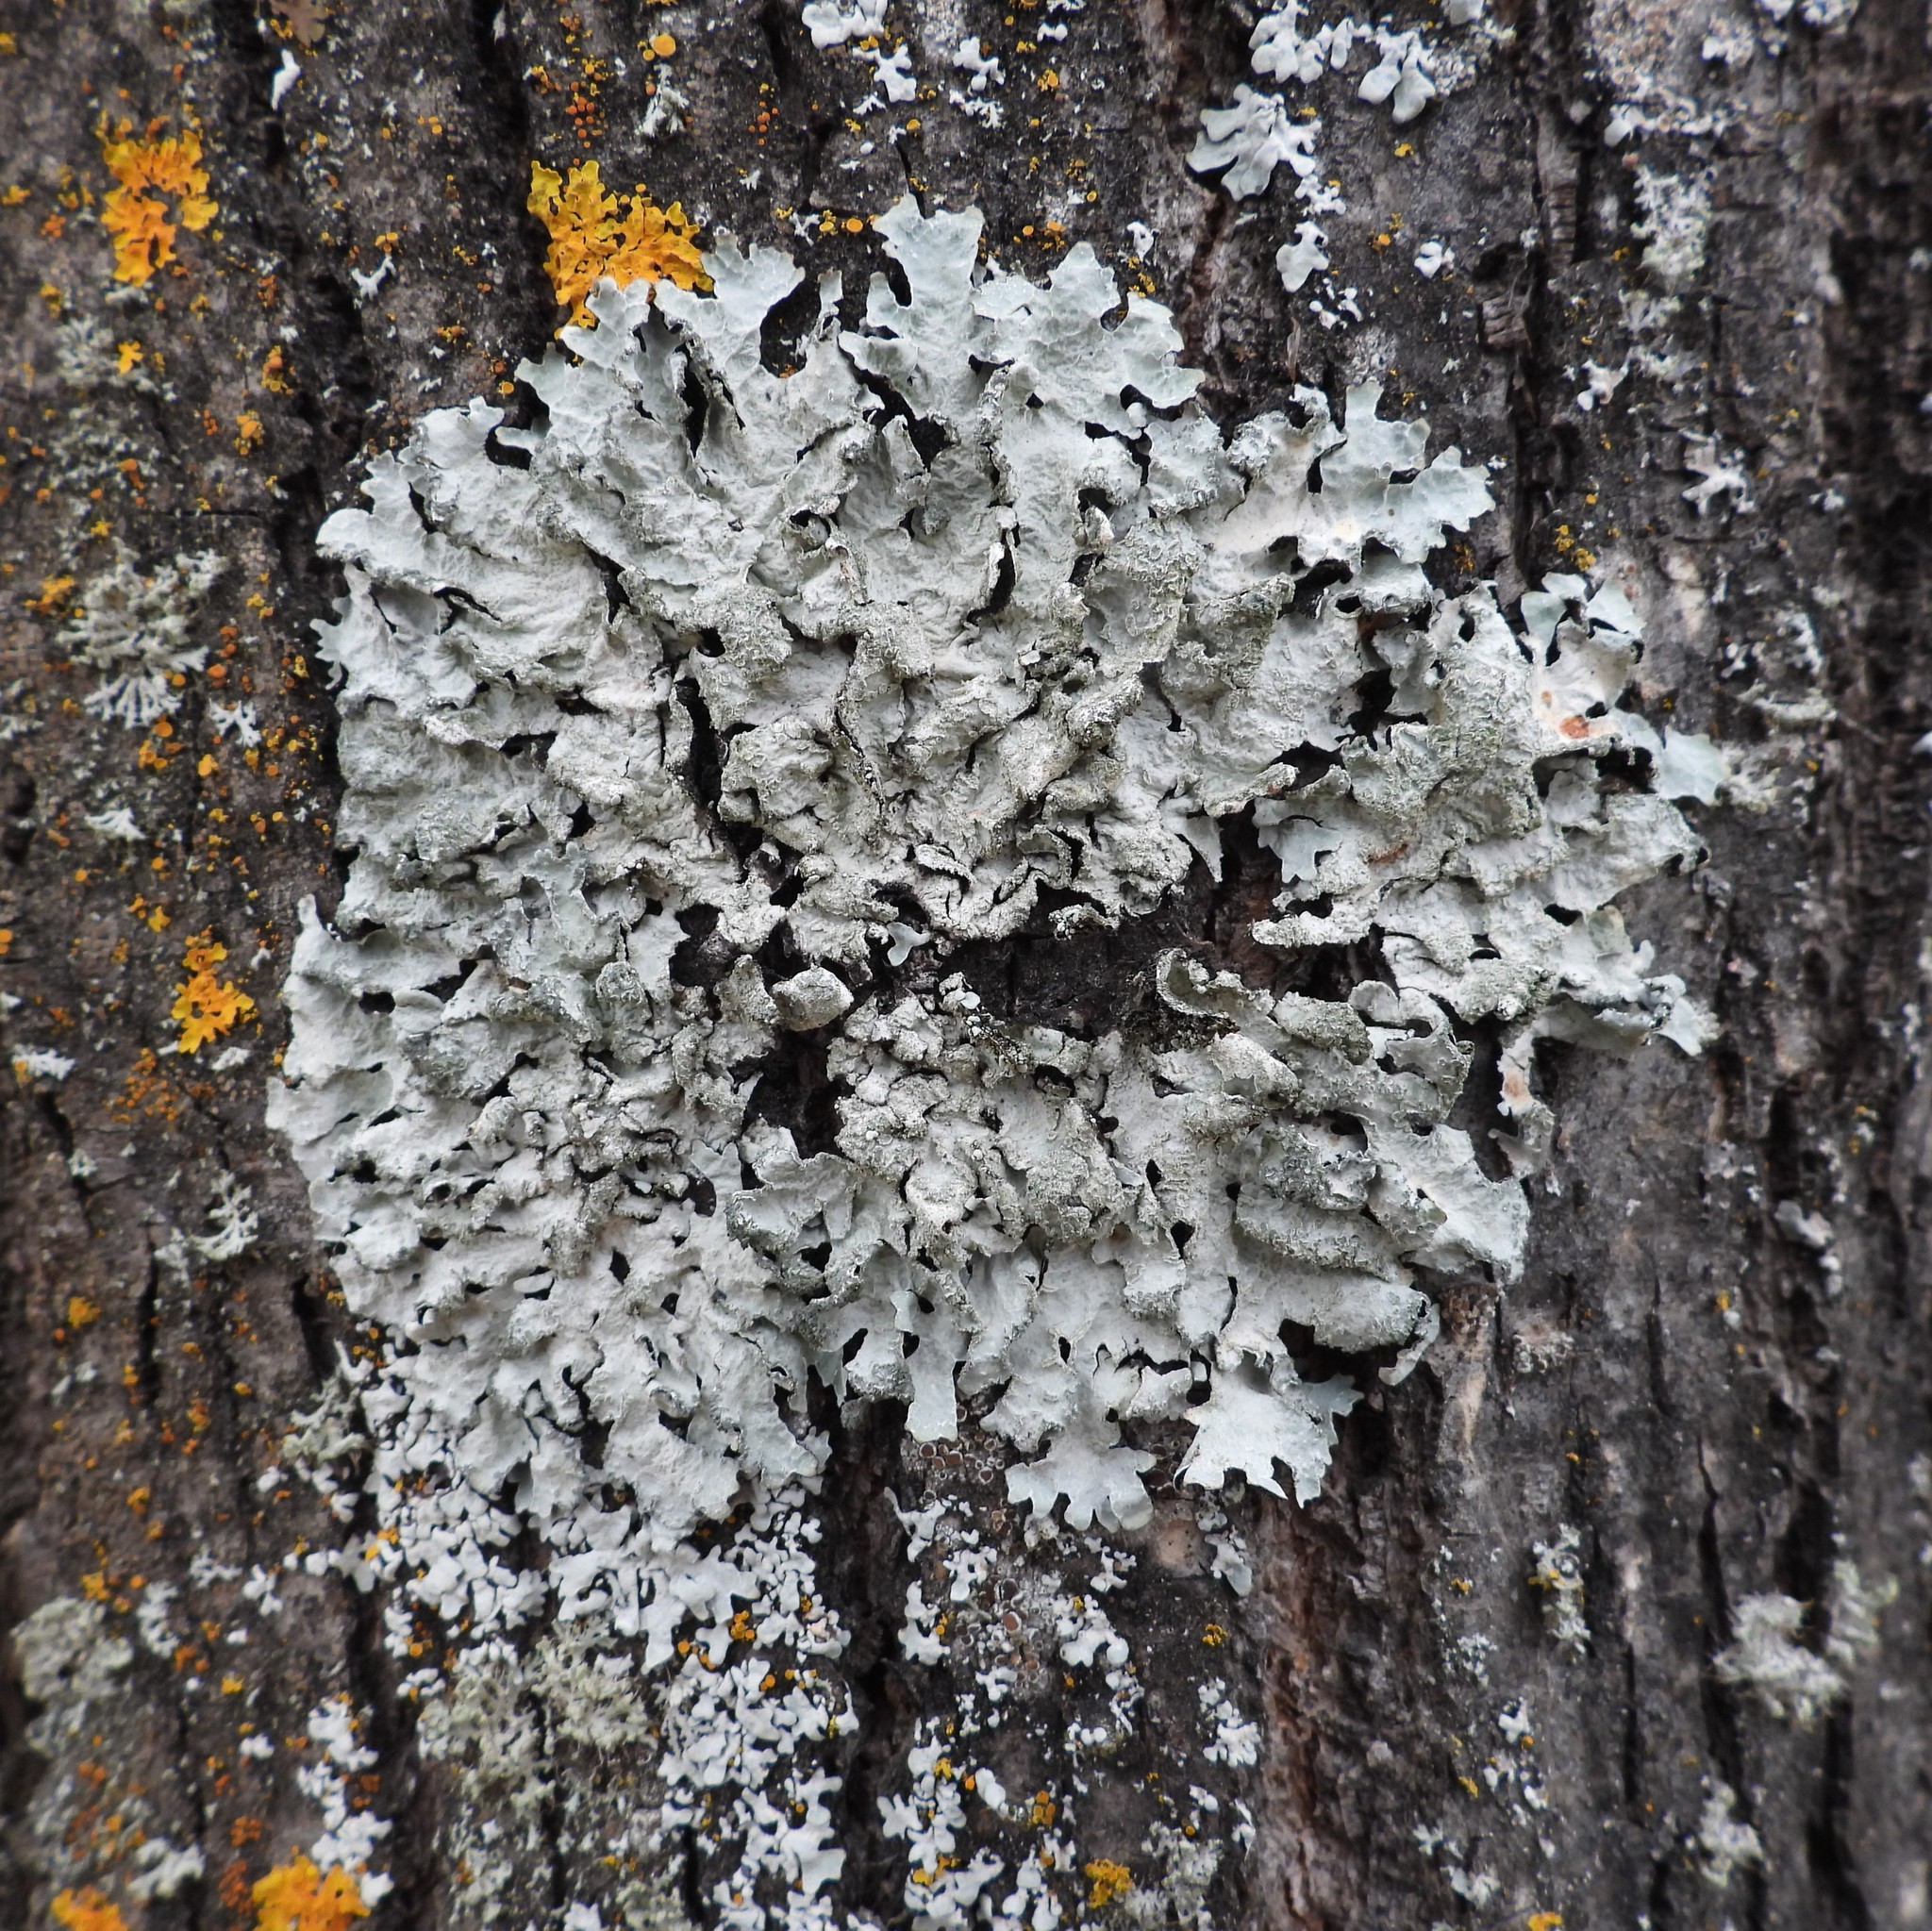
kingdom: Fungi
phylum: Ascomycota
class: Lecanoromycetes
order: Lecanorales
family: Parmeliaceae
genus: Parmelia
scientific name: Parmelia sulcata
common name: Netted shield lichen
